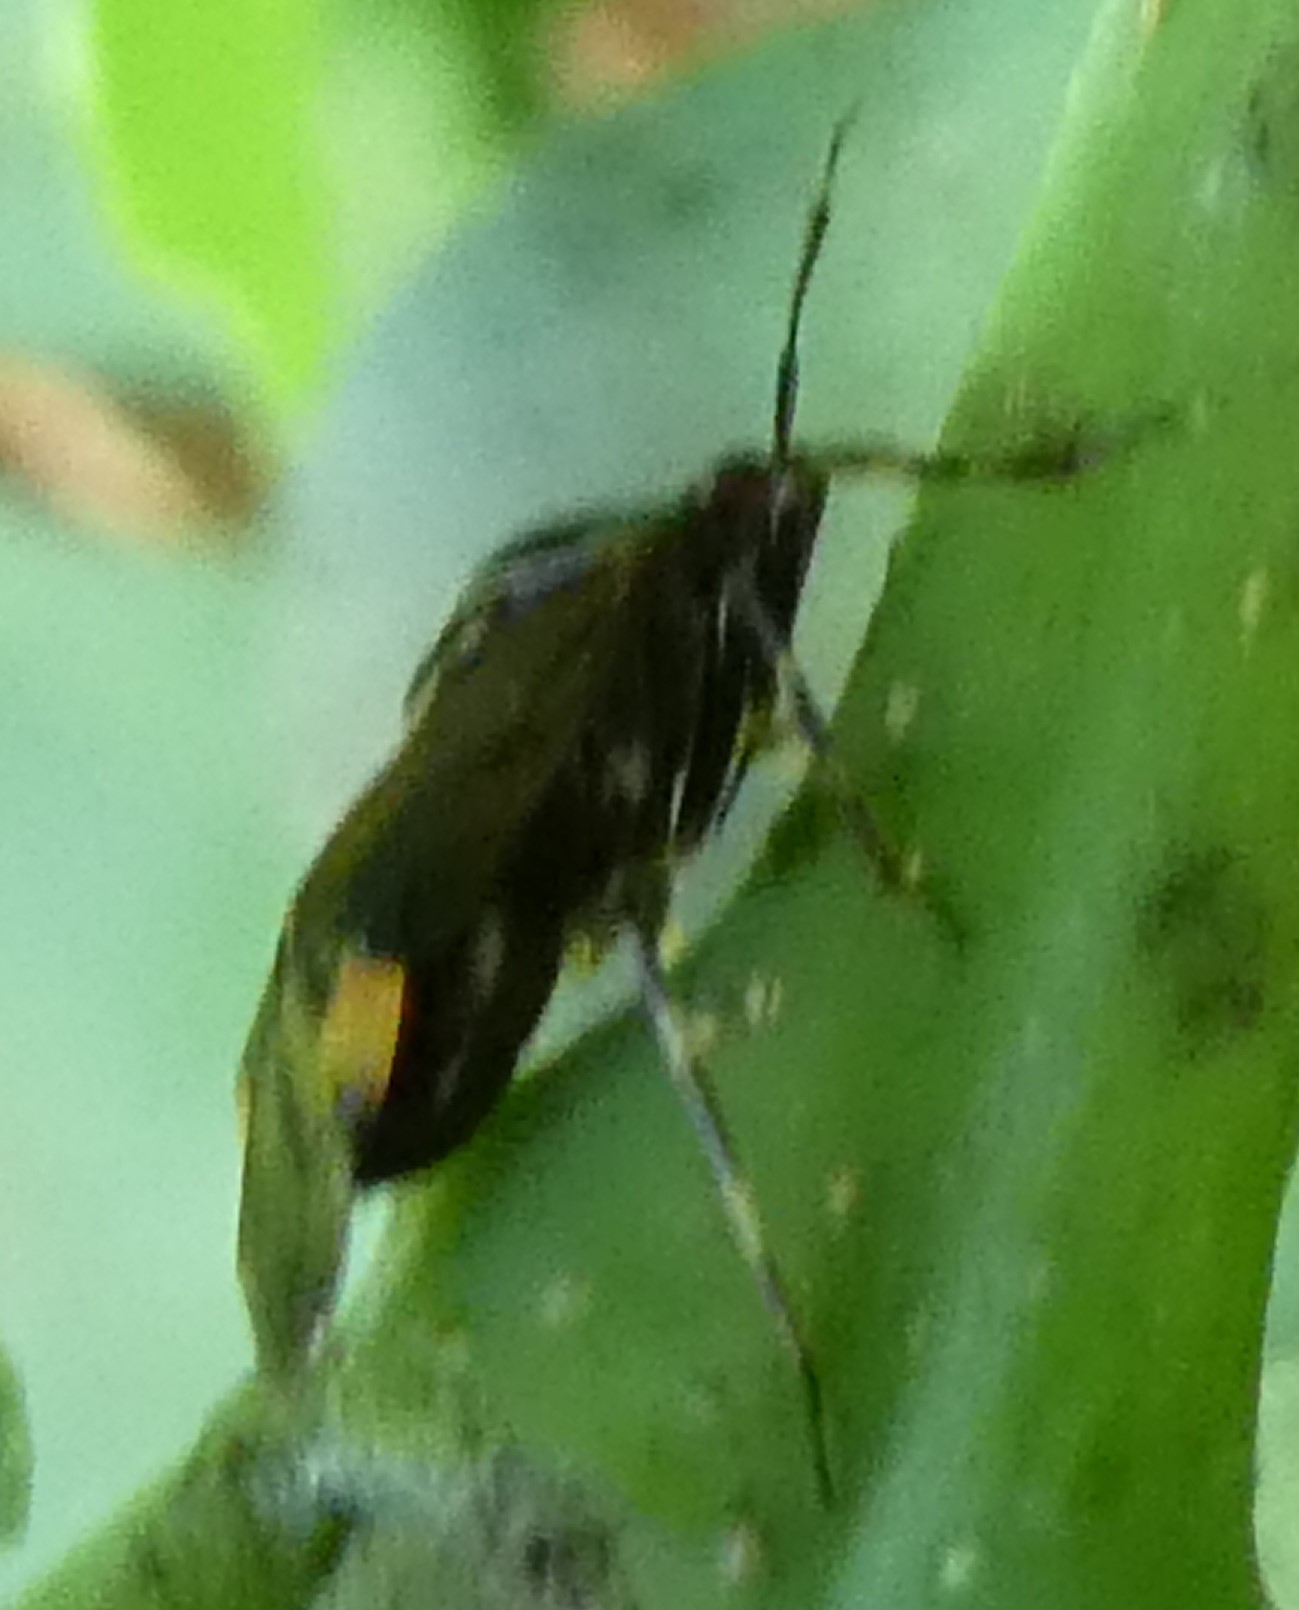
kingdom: Animalia
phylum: Arthropoda
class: Insecta
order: Hemiptera
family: Miridae
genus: Deraeocoris
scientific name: Deraeocoris flavilinea
